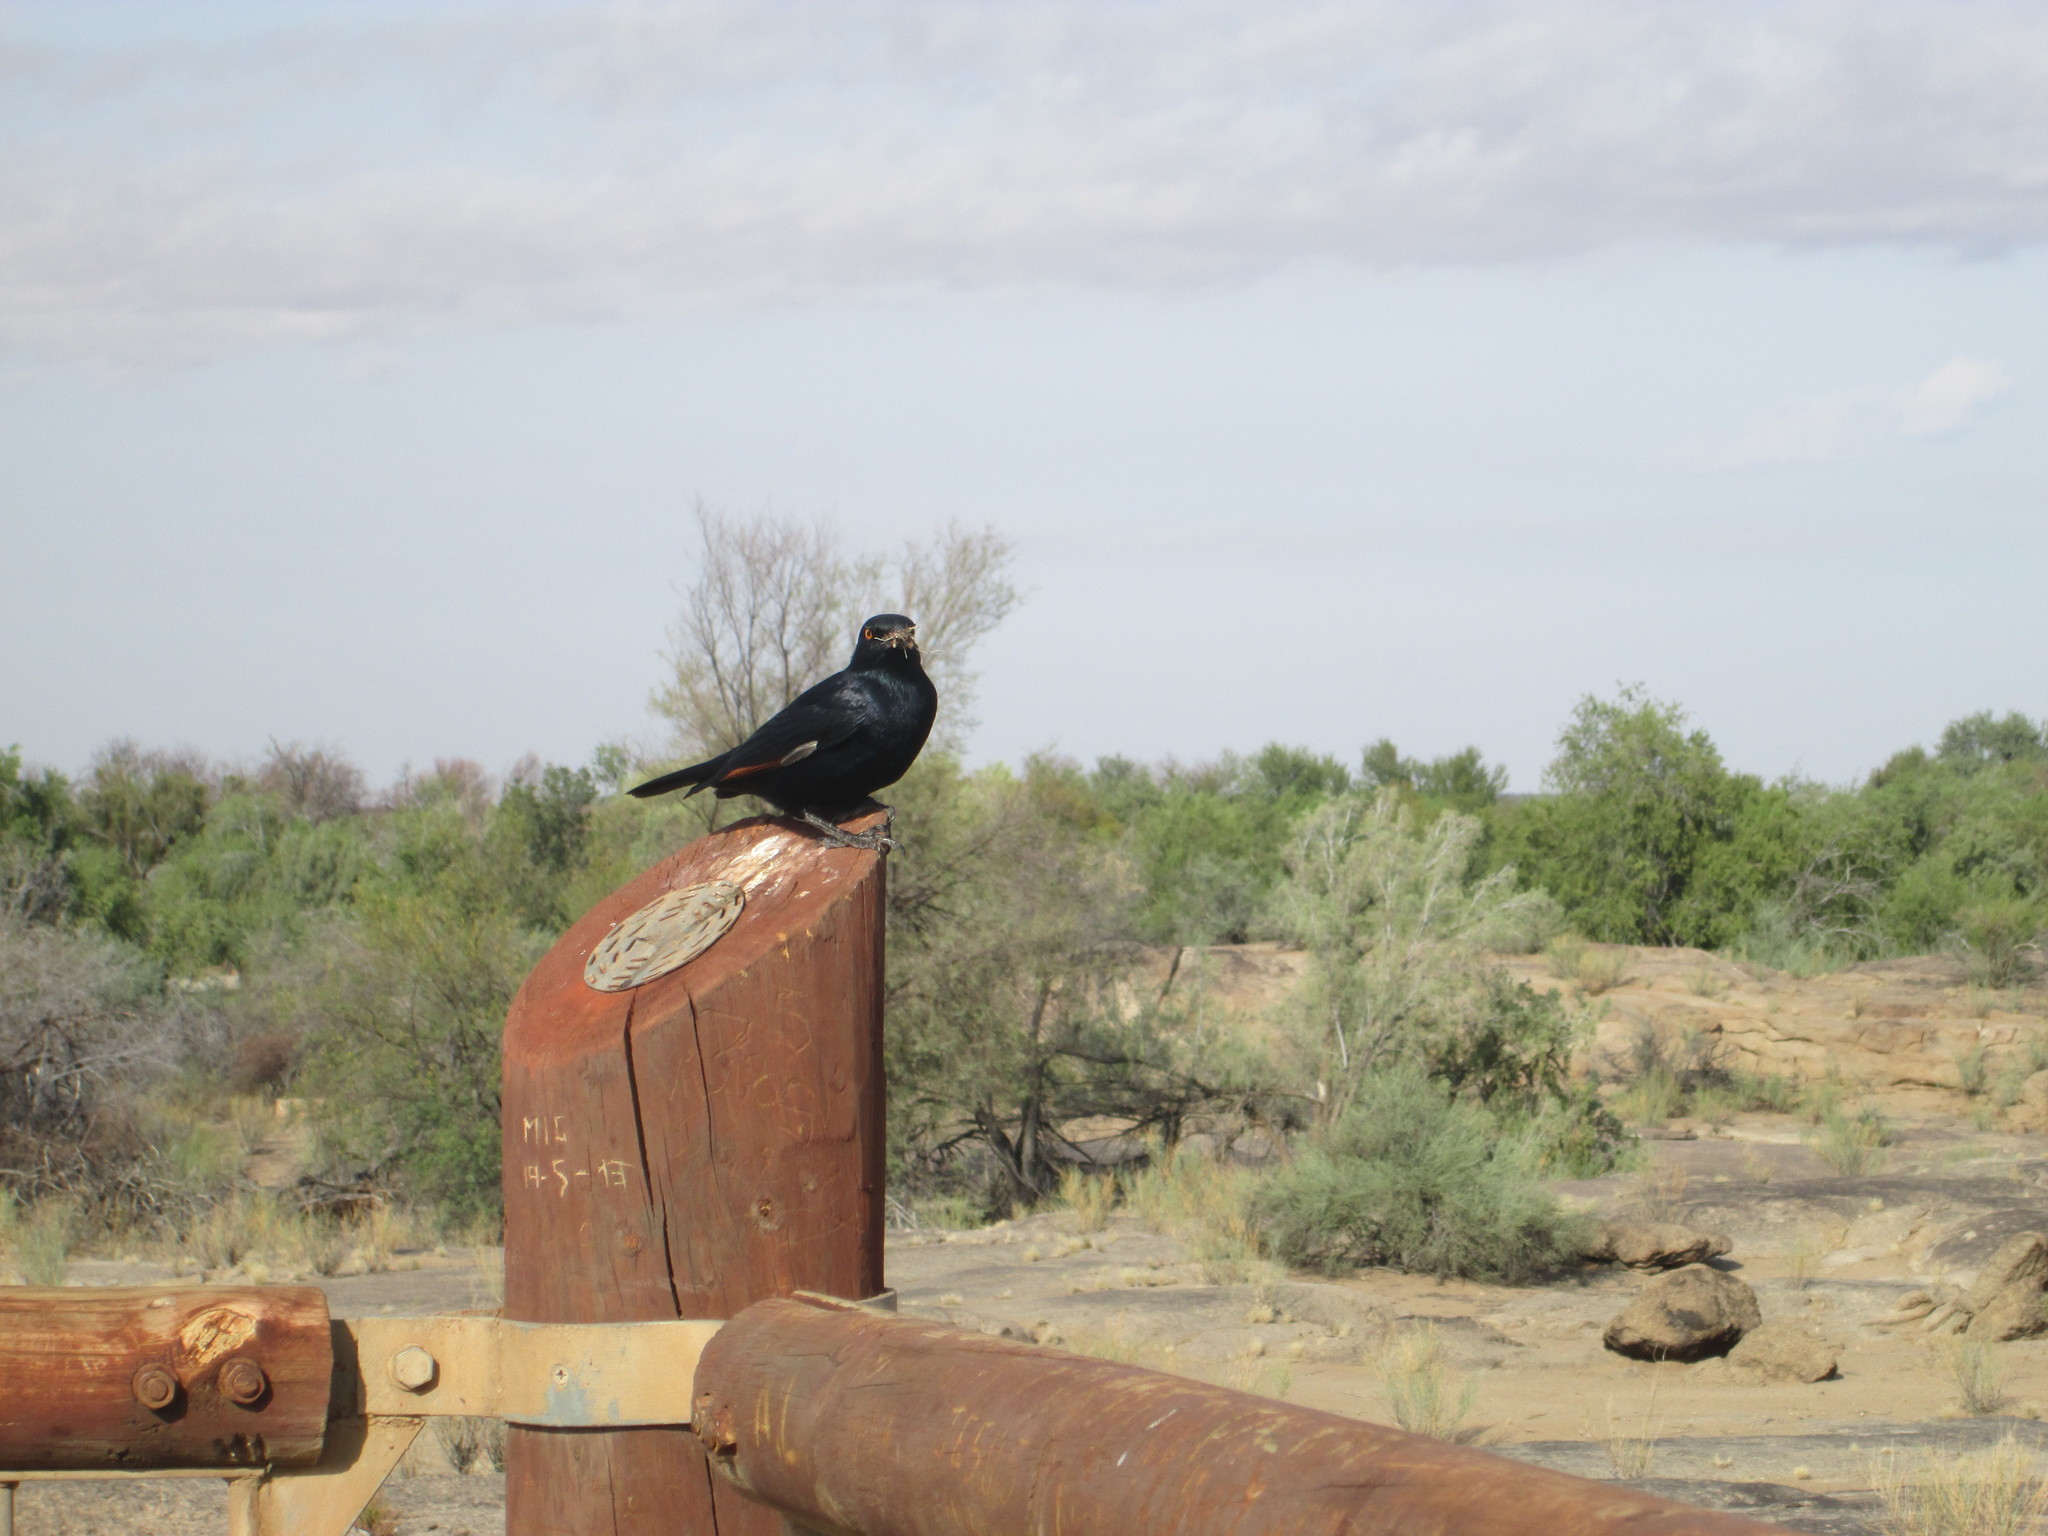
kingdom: Animalia
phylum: Chordata
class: Aves
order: Passeriformes
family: Sturnidae
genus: Onychognathus
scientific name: Onychognathus nabouroup
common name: Pale-winged starling
